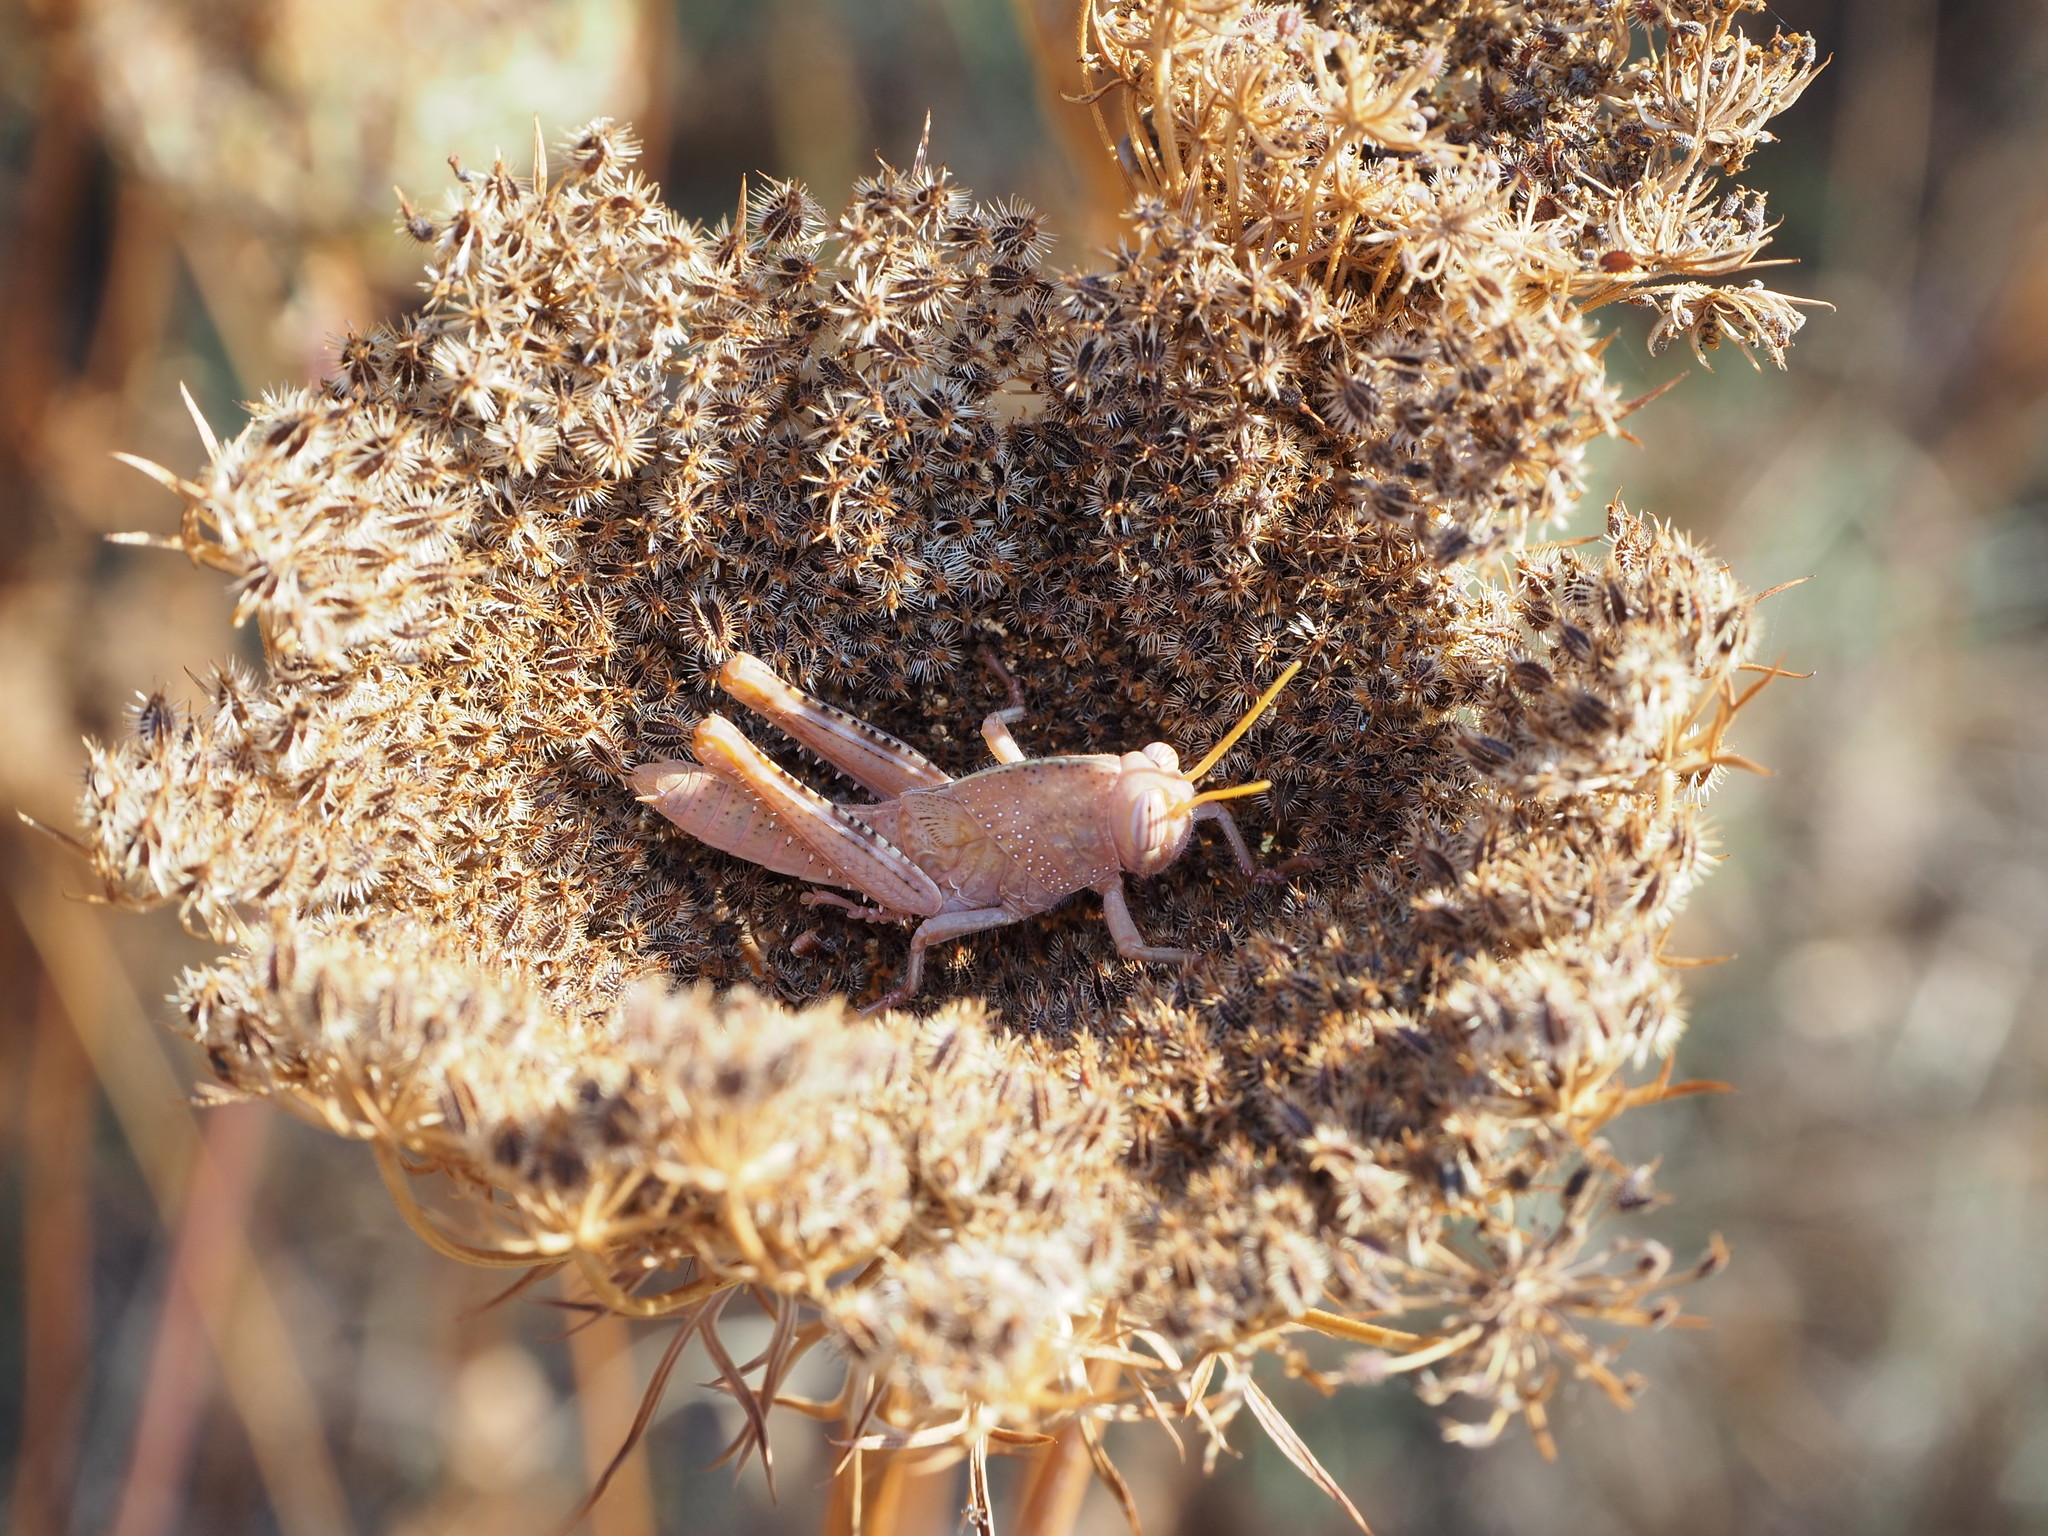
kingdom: Animalia
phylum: Arthropoda
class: Insecta
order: Orthoptera
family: Acrididae
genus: Anacridium
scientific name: Anacridium aegyptium
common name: Egyptian grasshopper
